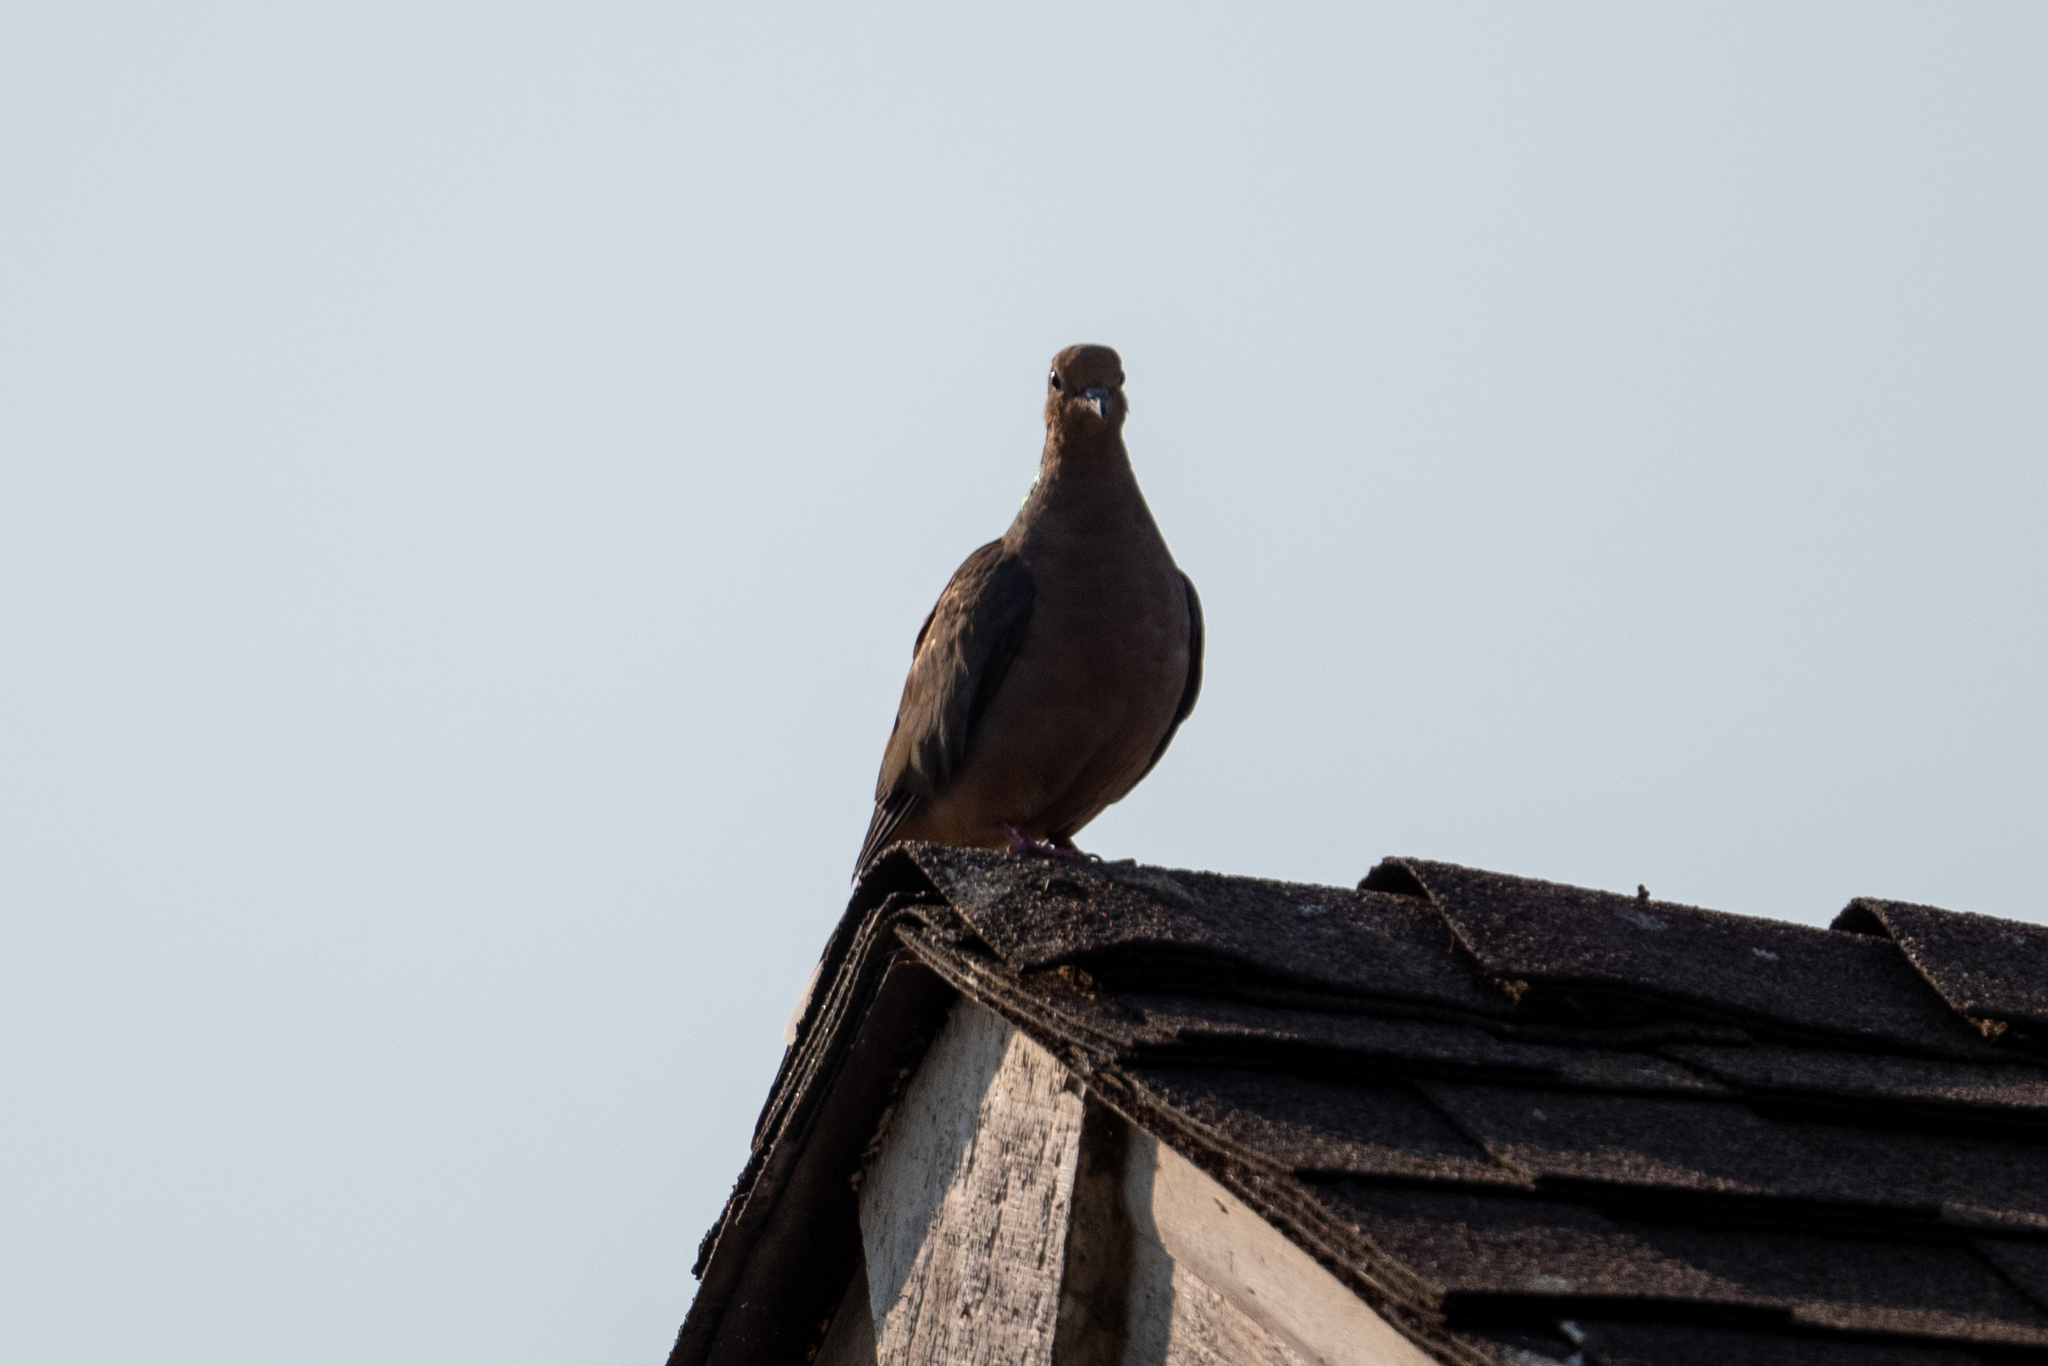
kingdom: Animalia
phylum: Chordata
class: Aves
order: Columbiformes
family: Columbidae
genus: Zenaida
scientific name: Zenaida macroura
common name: Mourning dove
